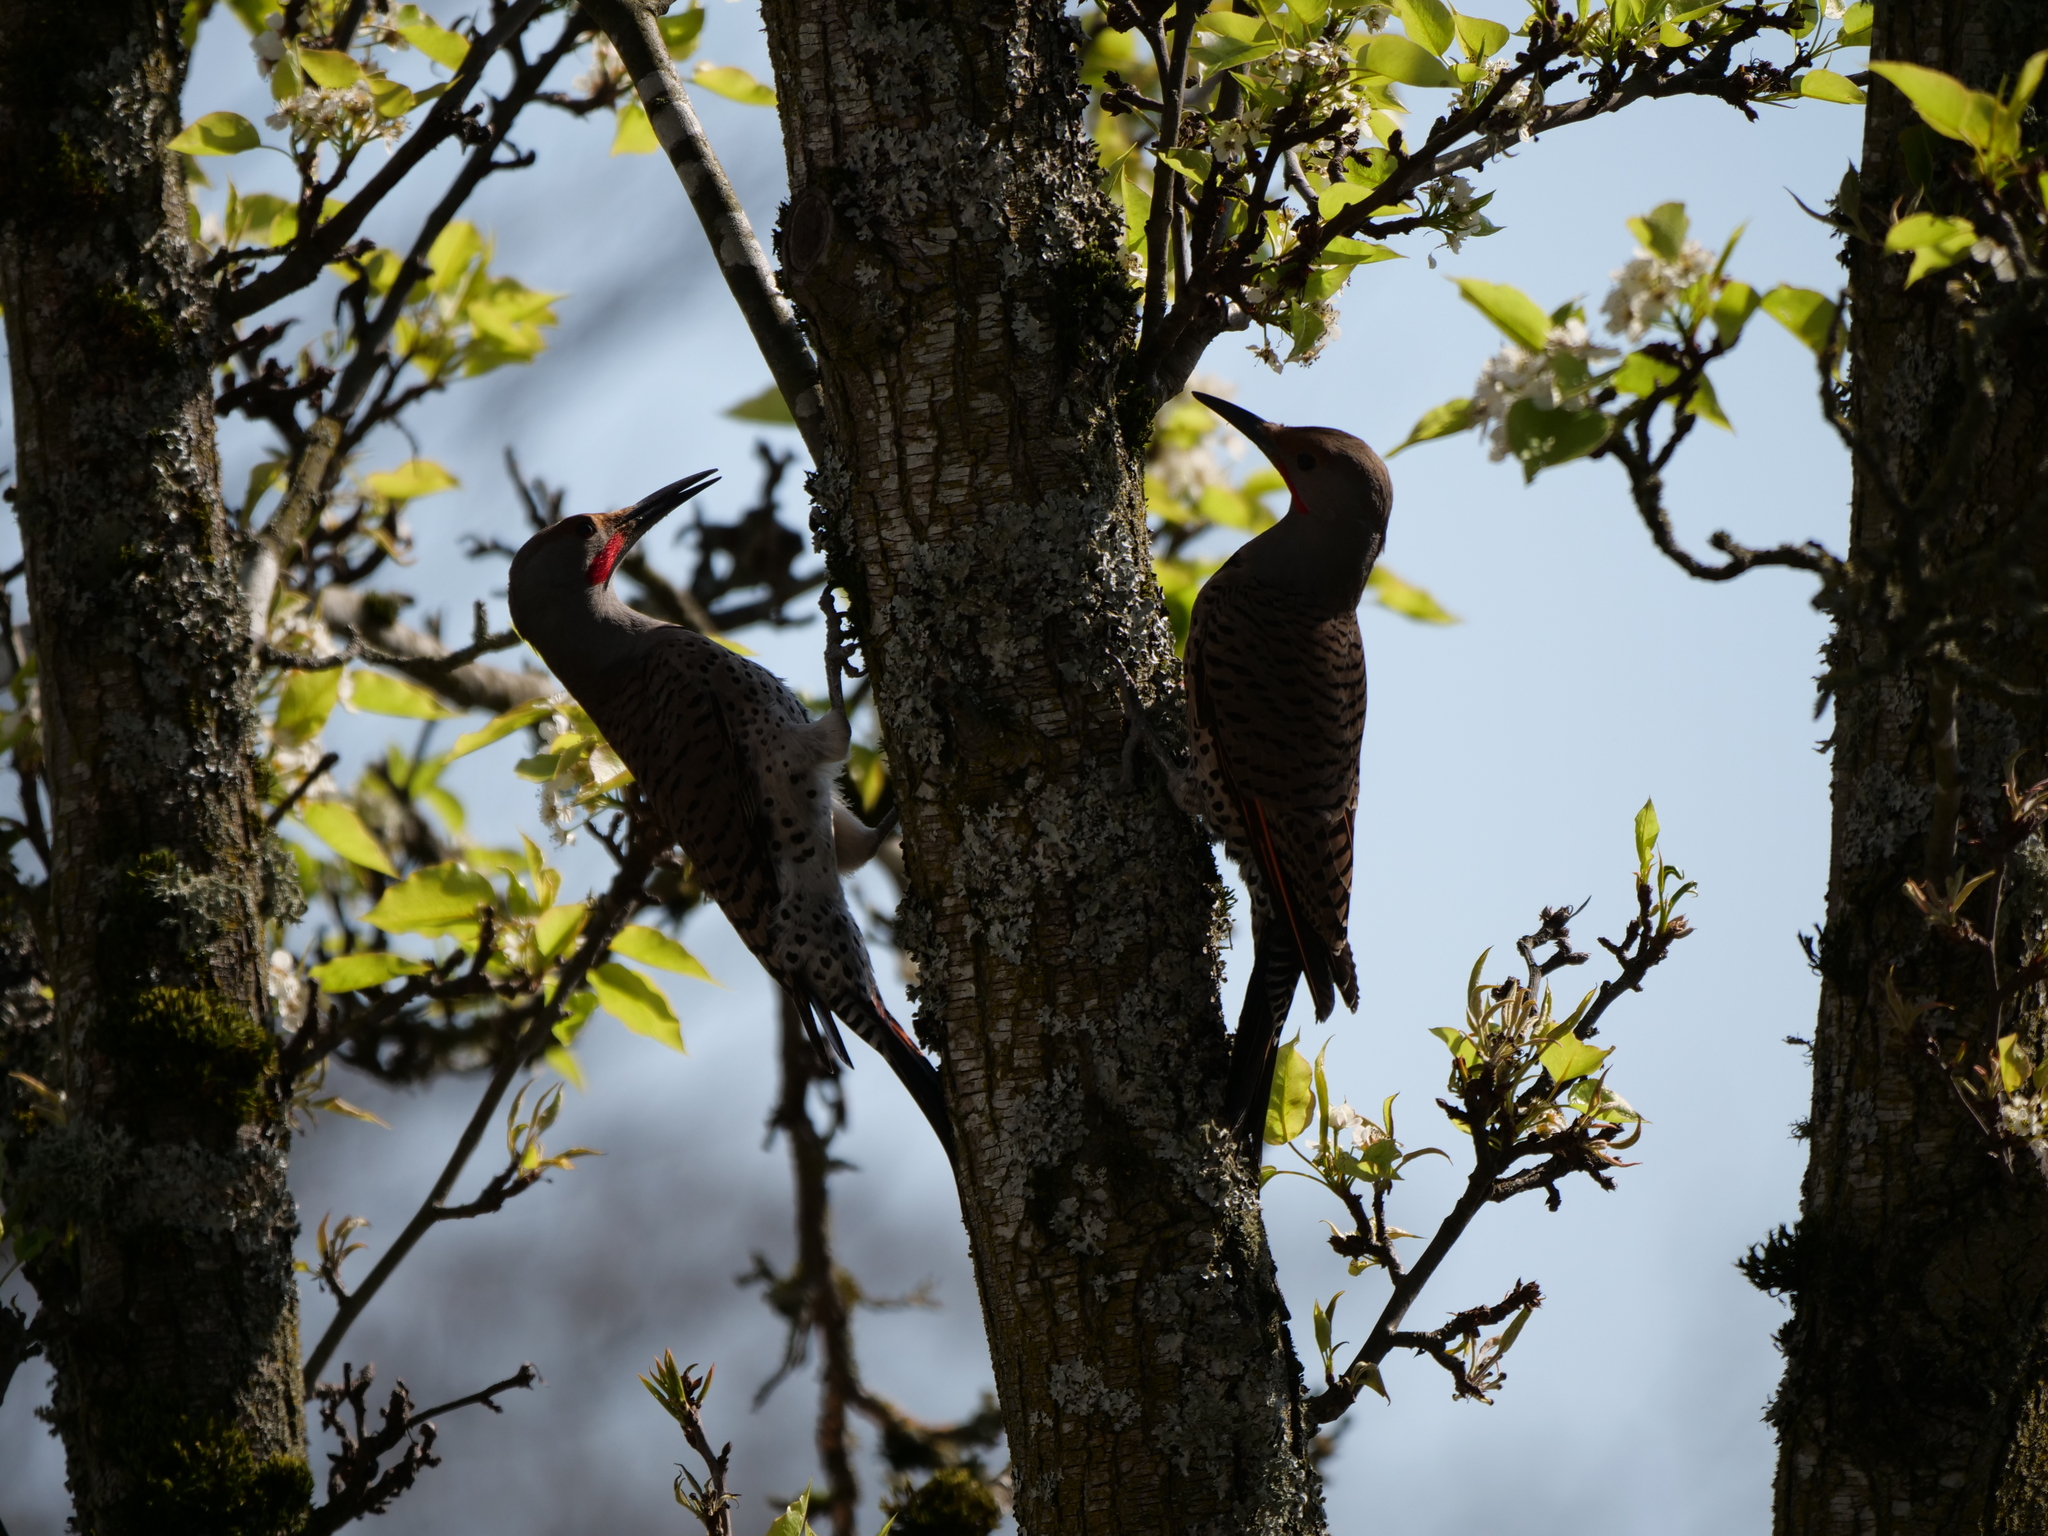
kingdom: Animalia
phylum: Chordata
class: Aves
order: Piciformes
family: Picidae
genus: Colaptes
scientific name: Colaptes auratus
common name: Northern flicker
